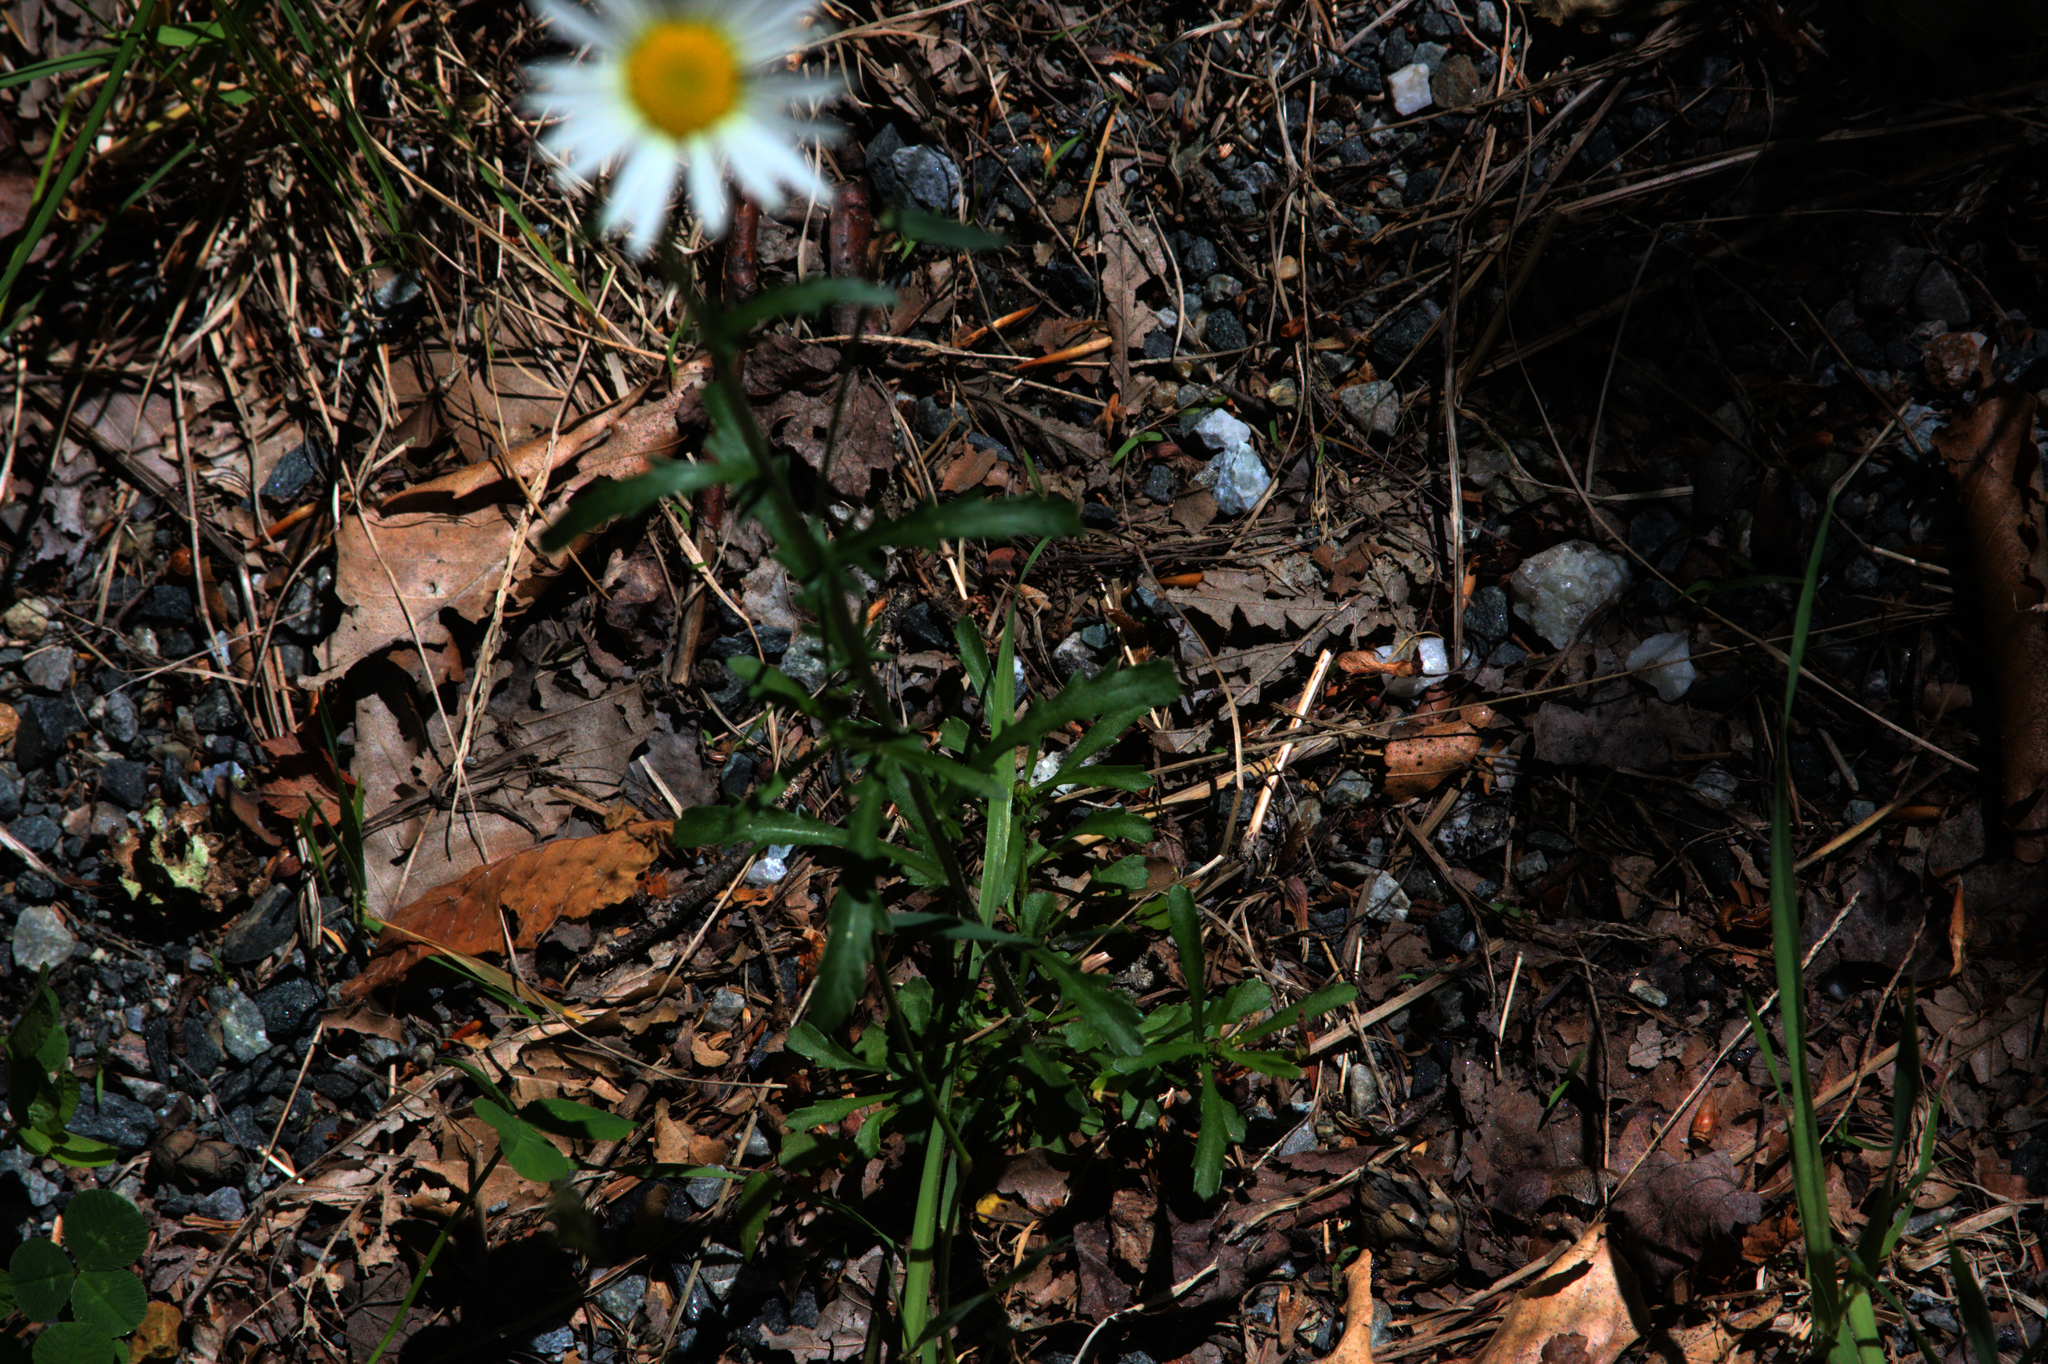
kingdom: Plantae
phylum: Tracheophyta
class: Magnoliopsida
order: Asterales
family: Asteraceae
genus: Leucanthemum
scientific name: Leucanthemum vulgare
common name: Oxeye daisy
